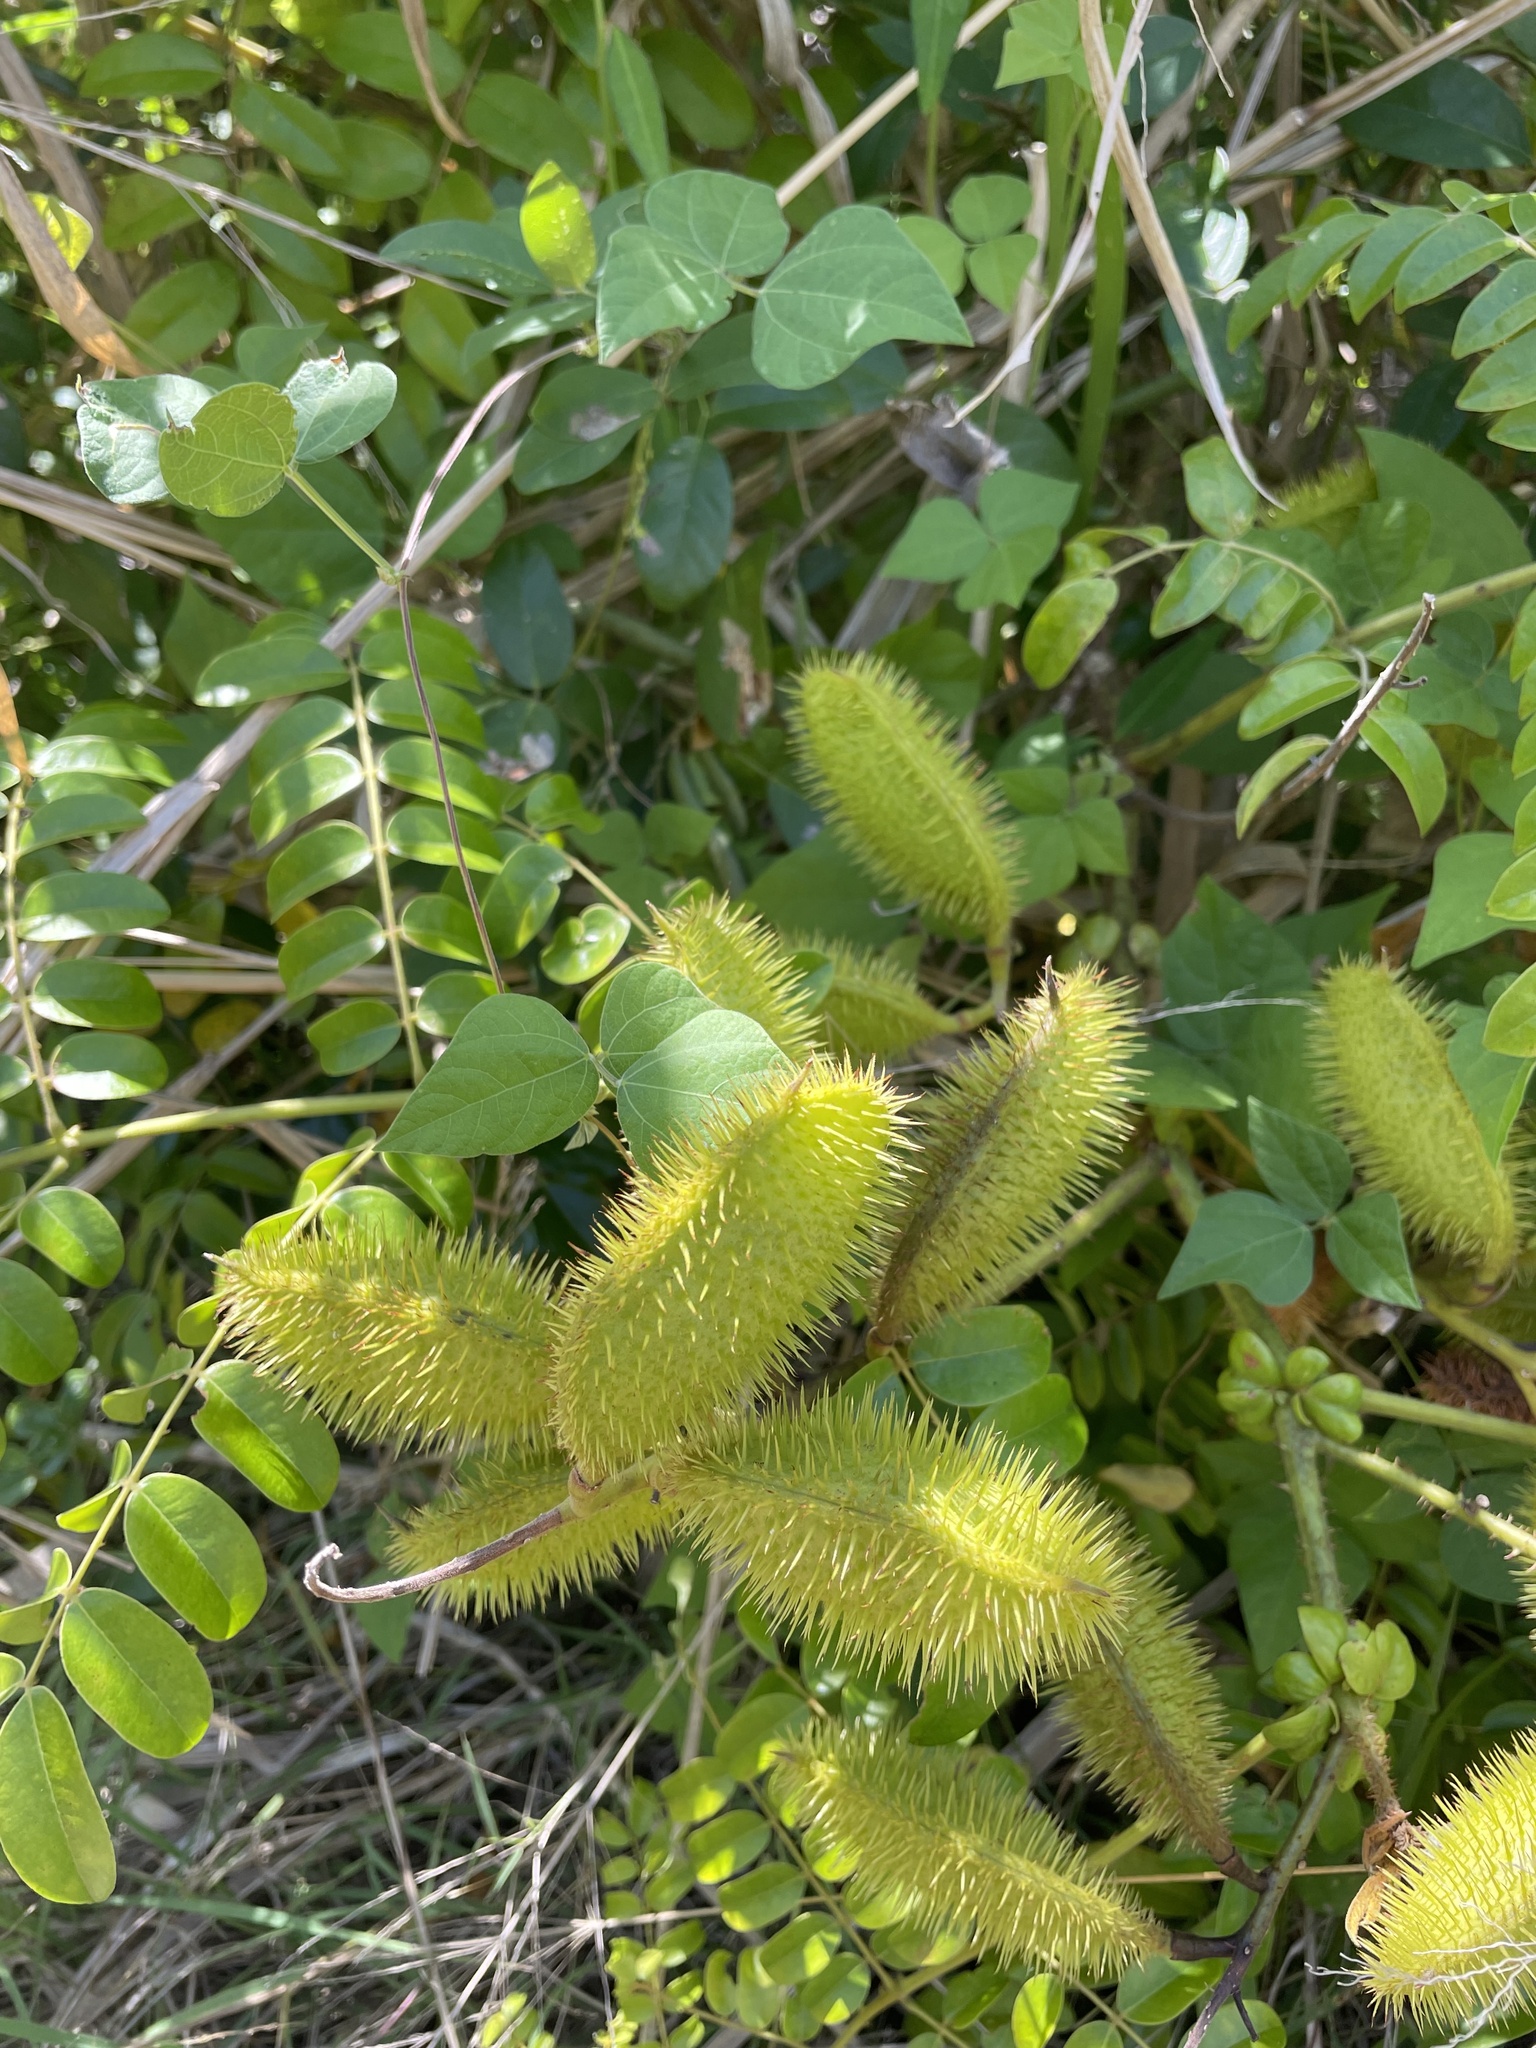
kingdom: Plantae
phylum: Tracheophyta
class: Magnoliopsida
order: Fabales
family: Fabaceae
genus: Guilandina
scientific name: Guilandina bonduc
